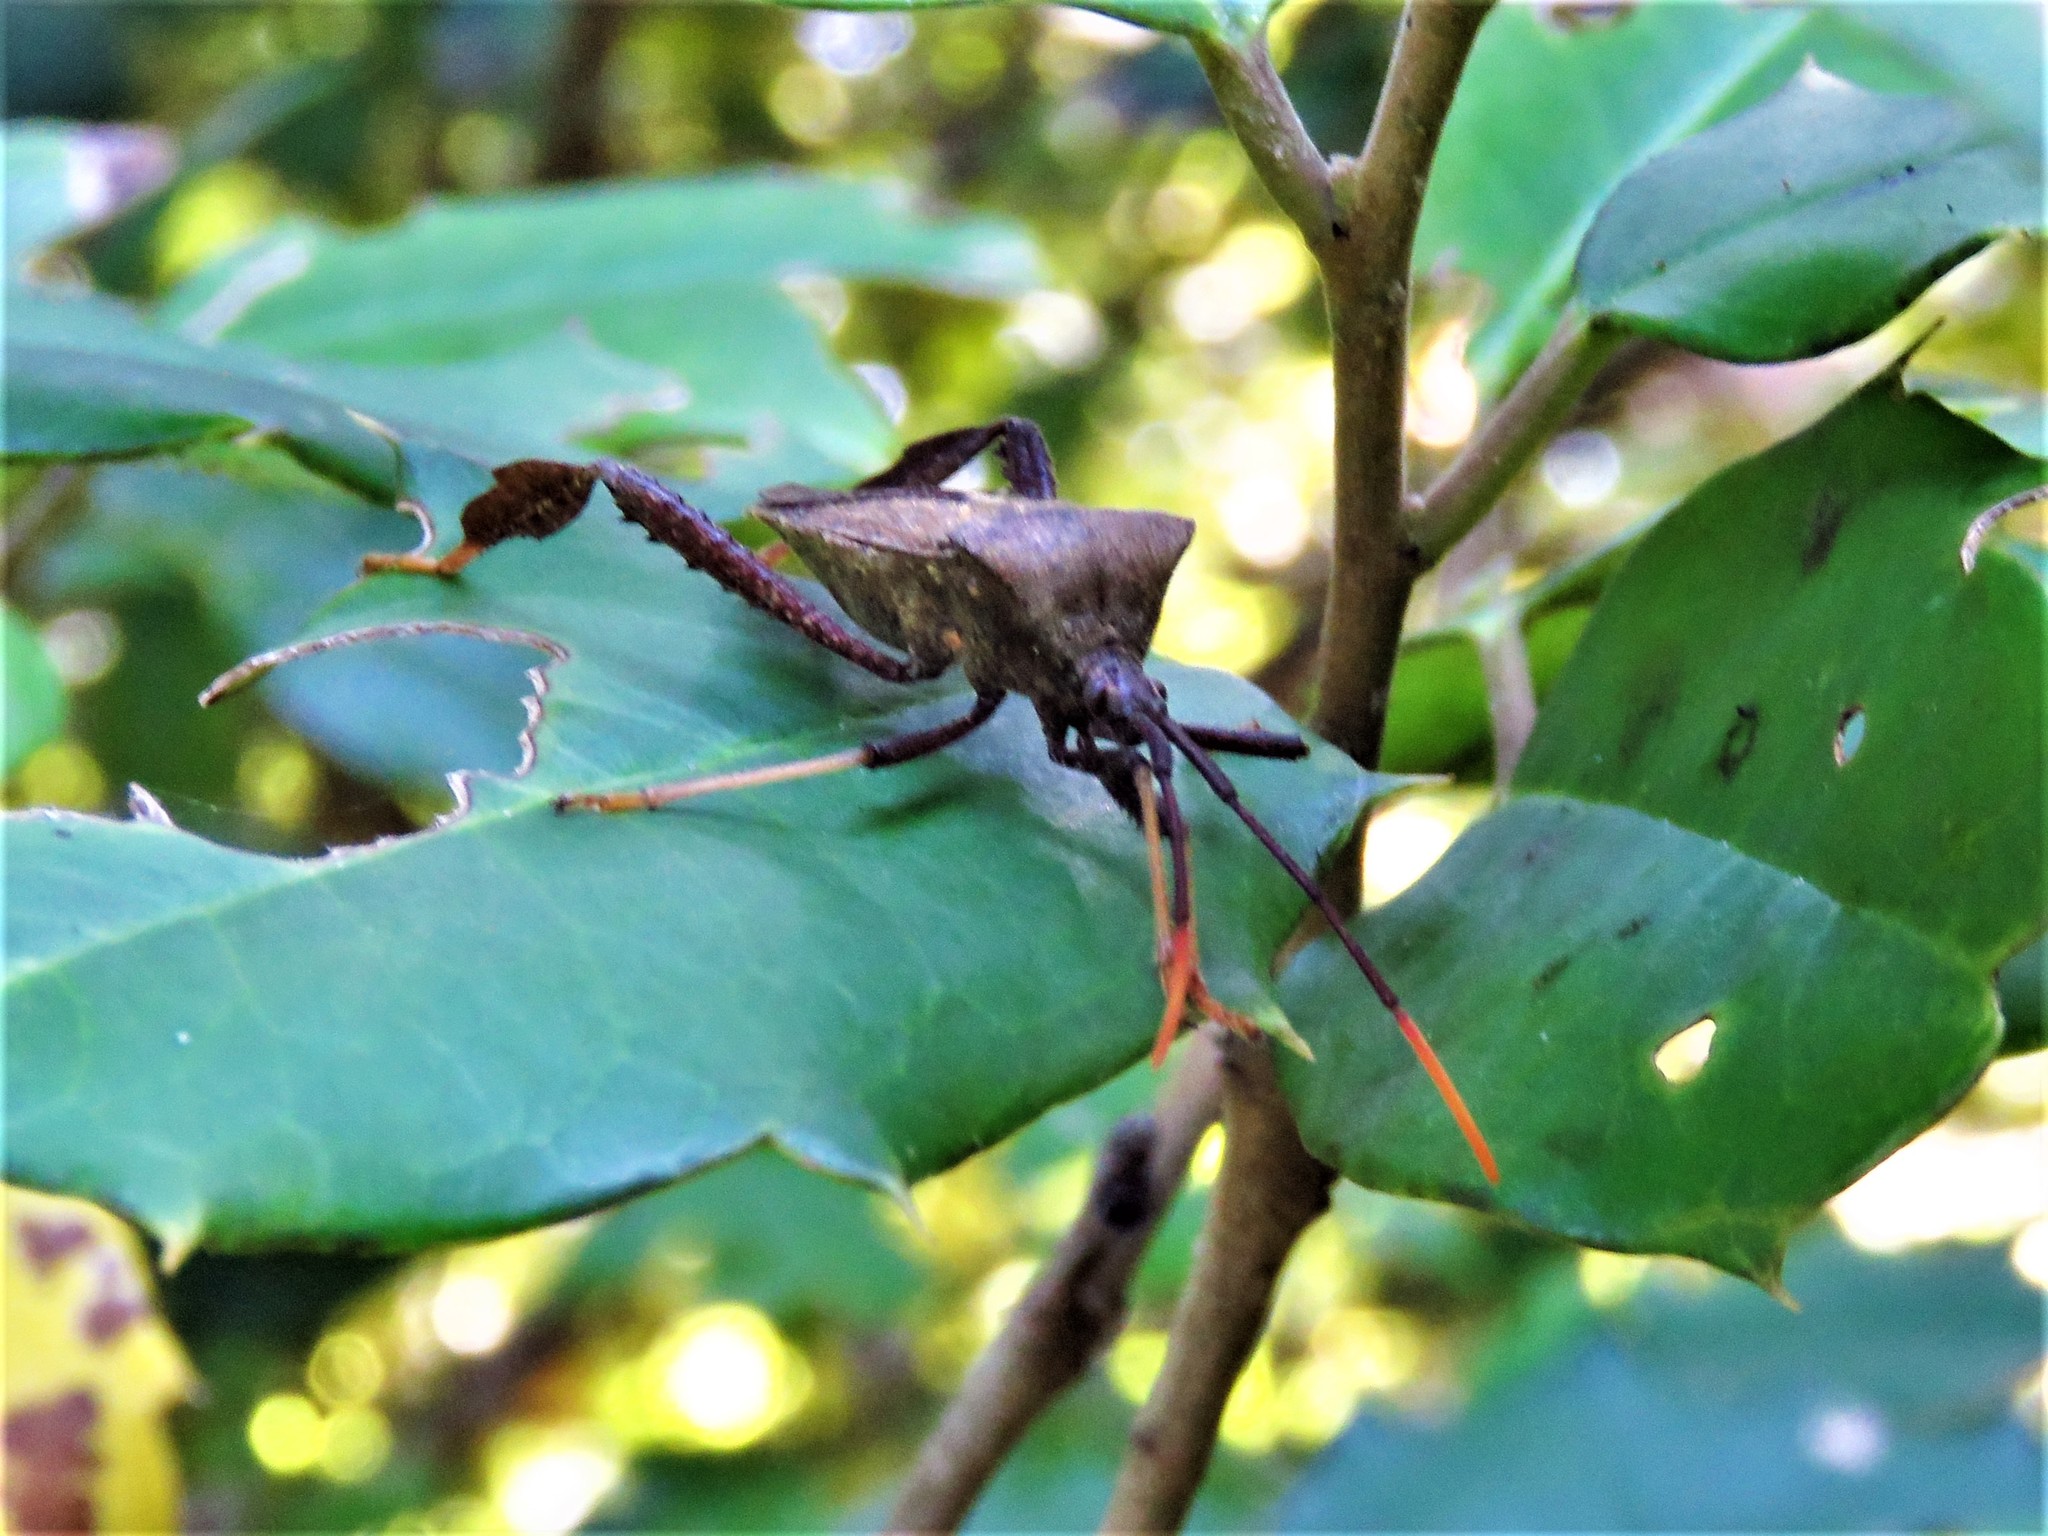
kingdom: Animalia
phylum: Arthropoda
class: Insecta
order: Hemiptera
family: Coreidae
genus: Acanthocephala
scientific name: Acanthocephala terminalis
